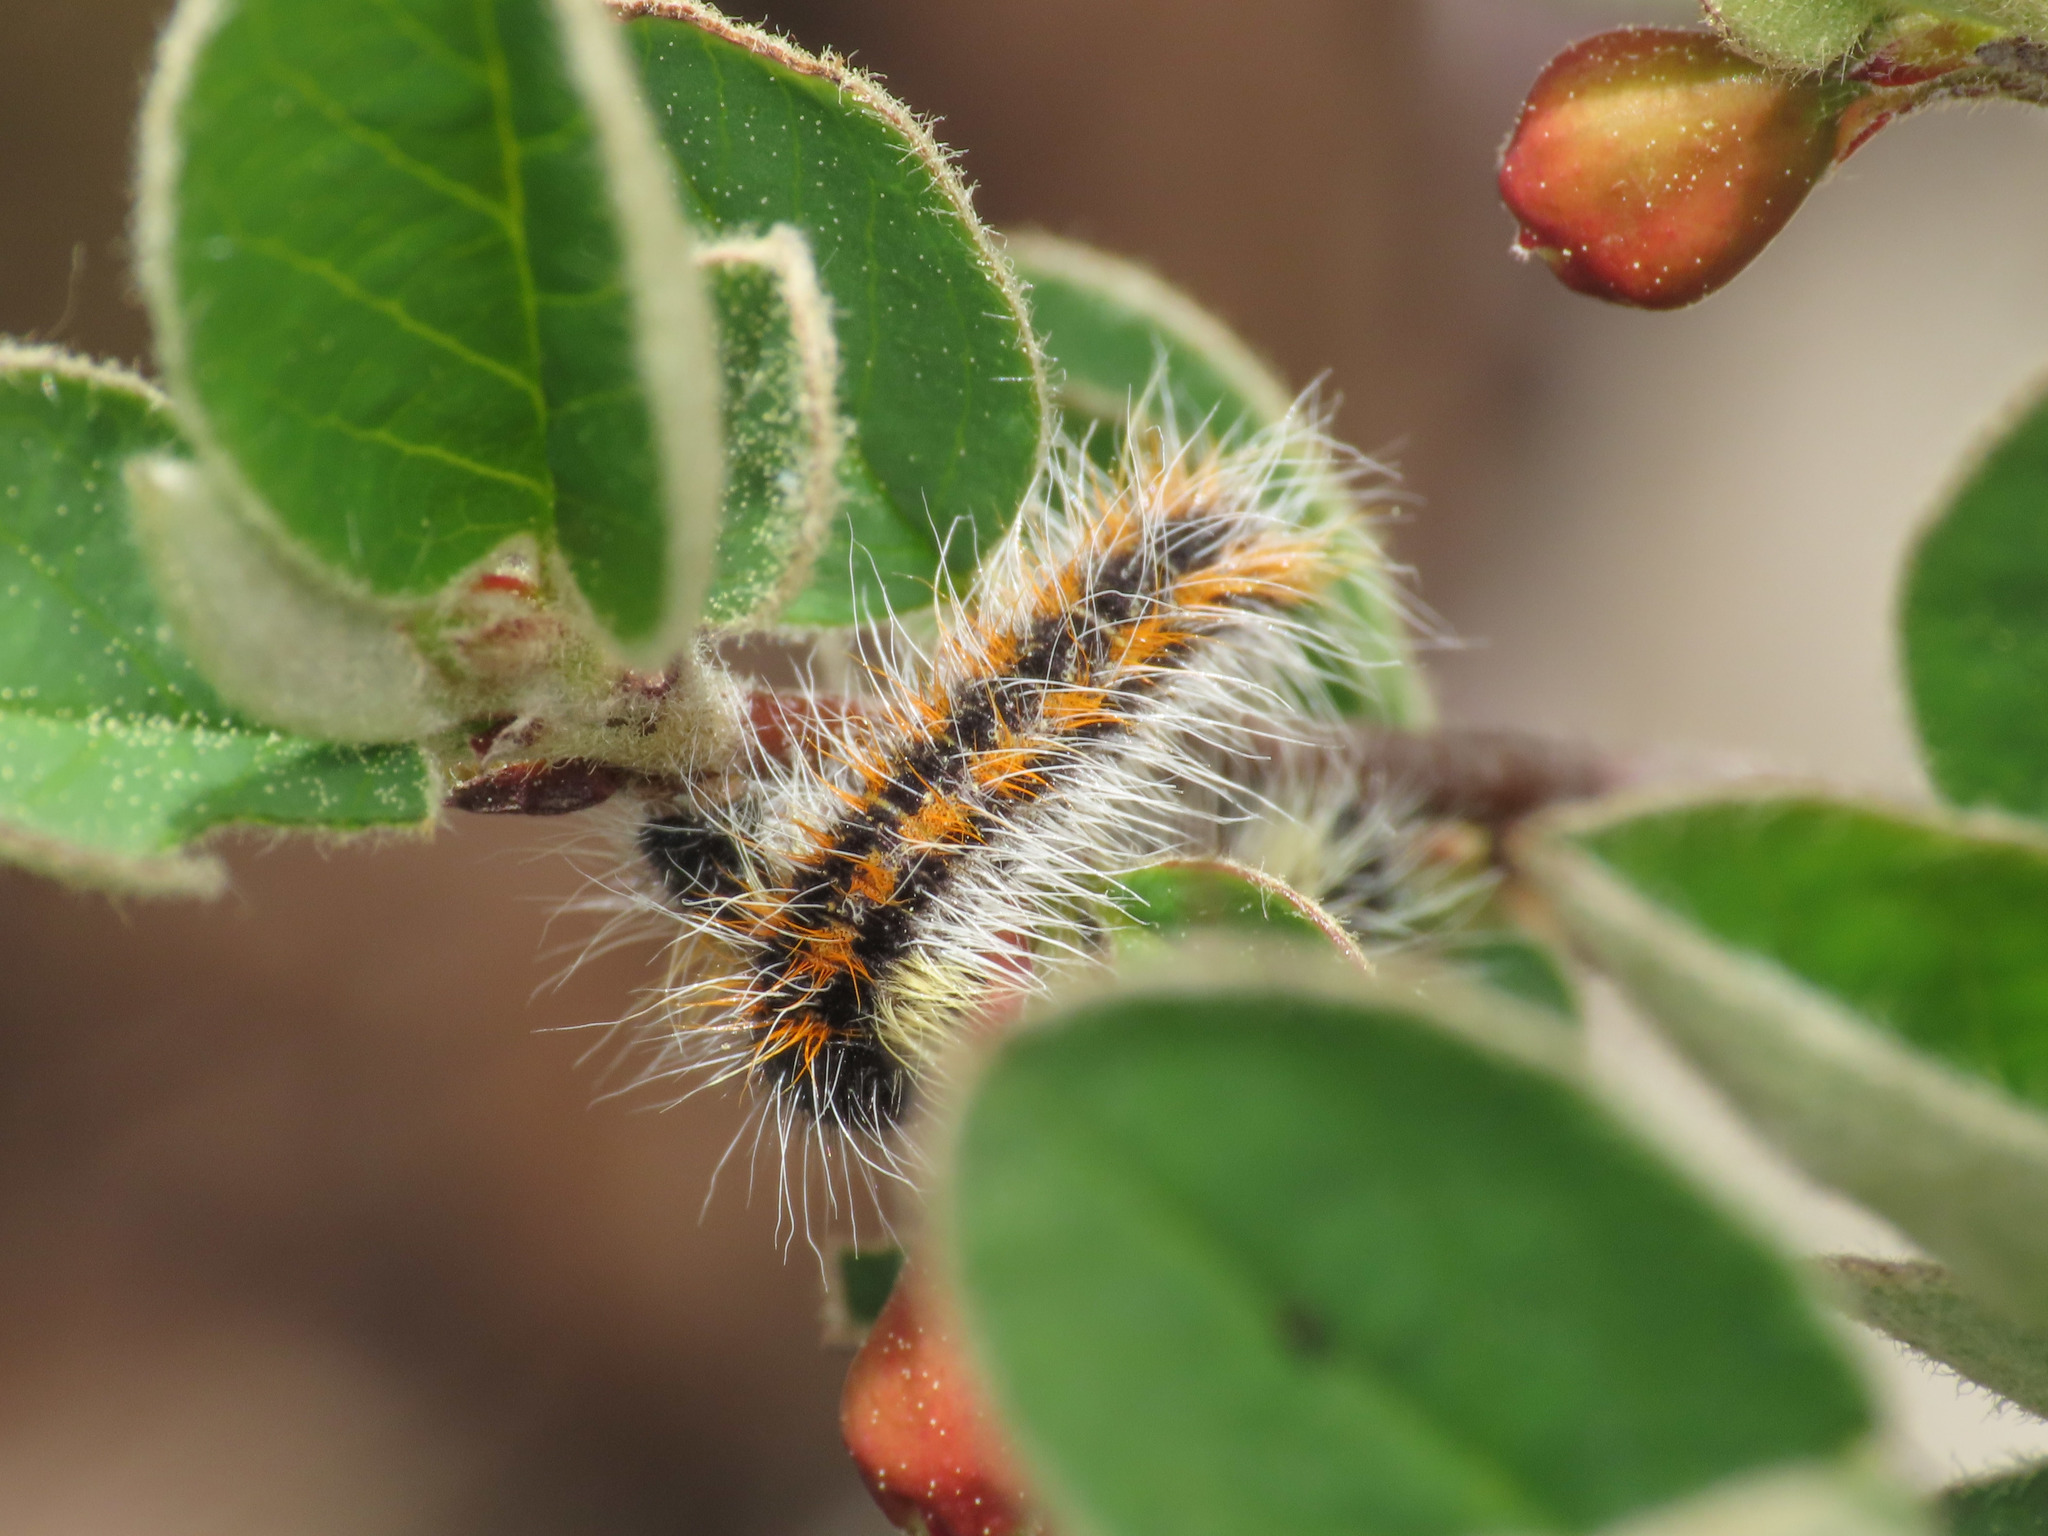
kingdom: Animalia
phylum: Arthropoda
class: Insecta
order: Lepidoptera
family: Pieridae
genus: Aporia
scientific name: Aporia crataegi
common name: Black-veined white
